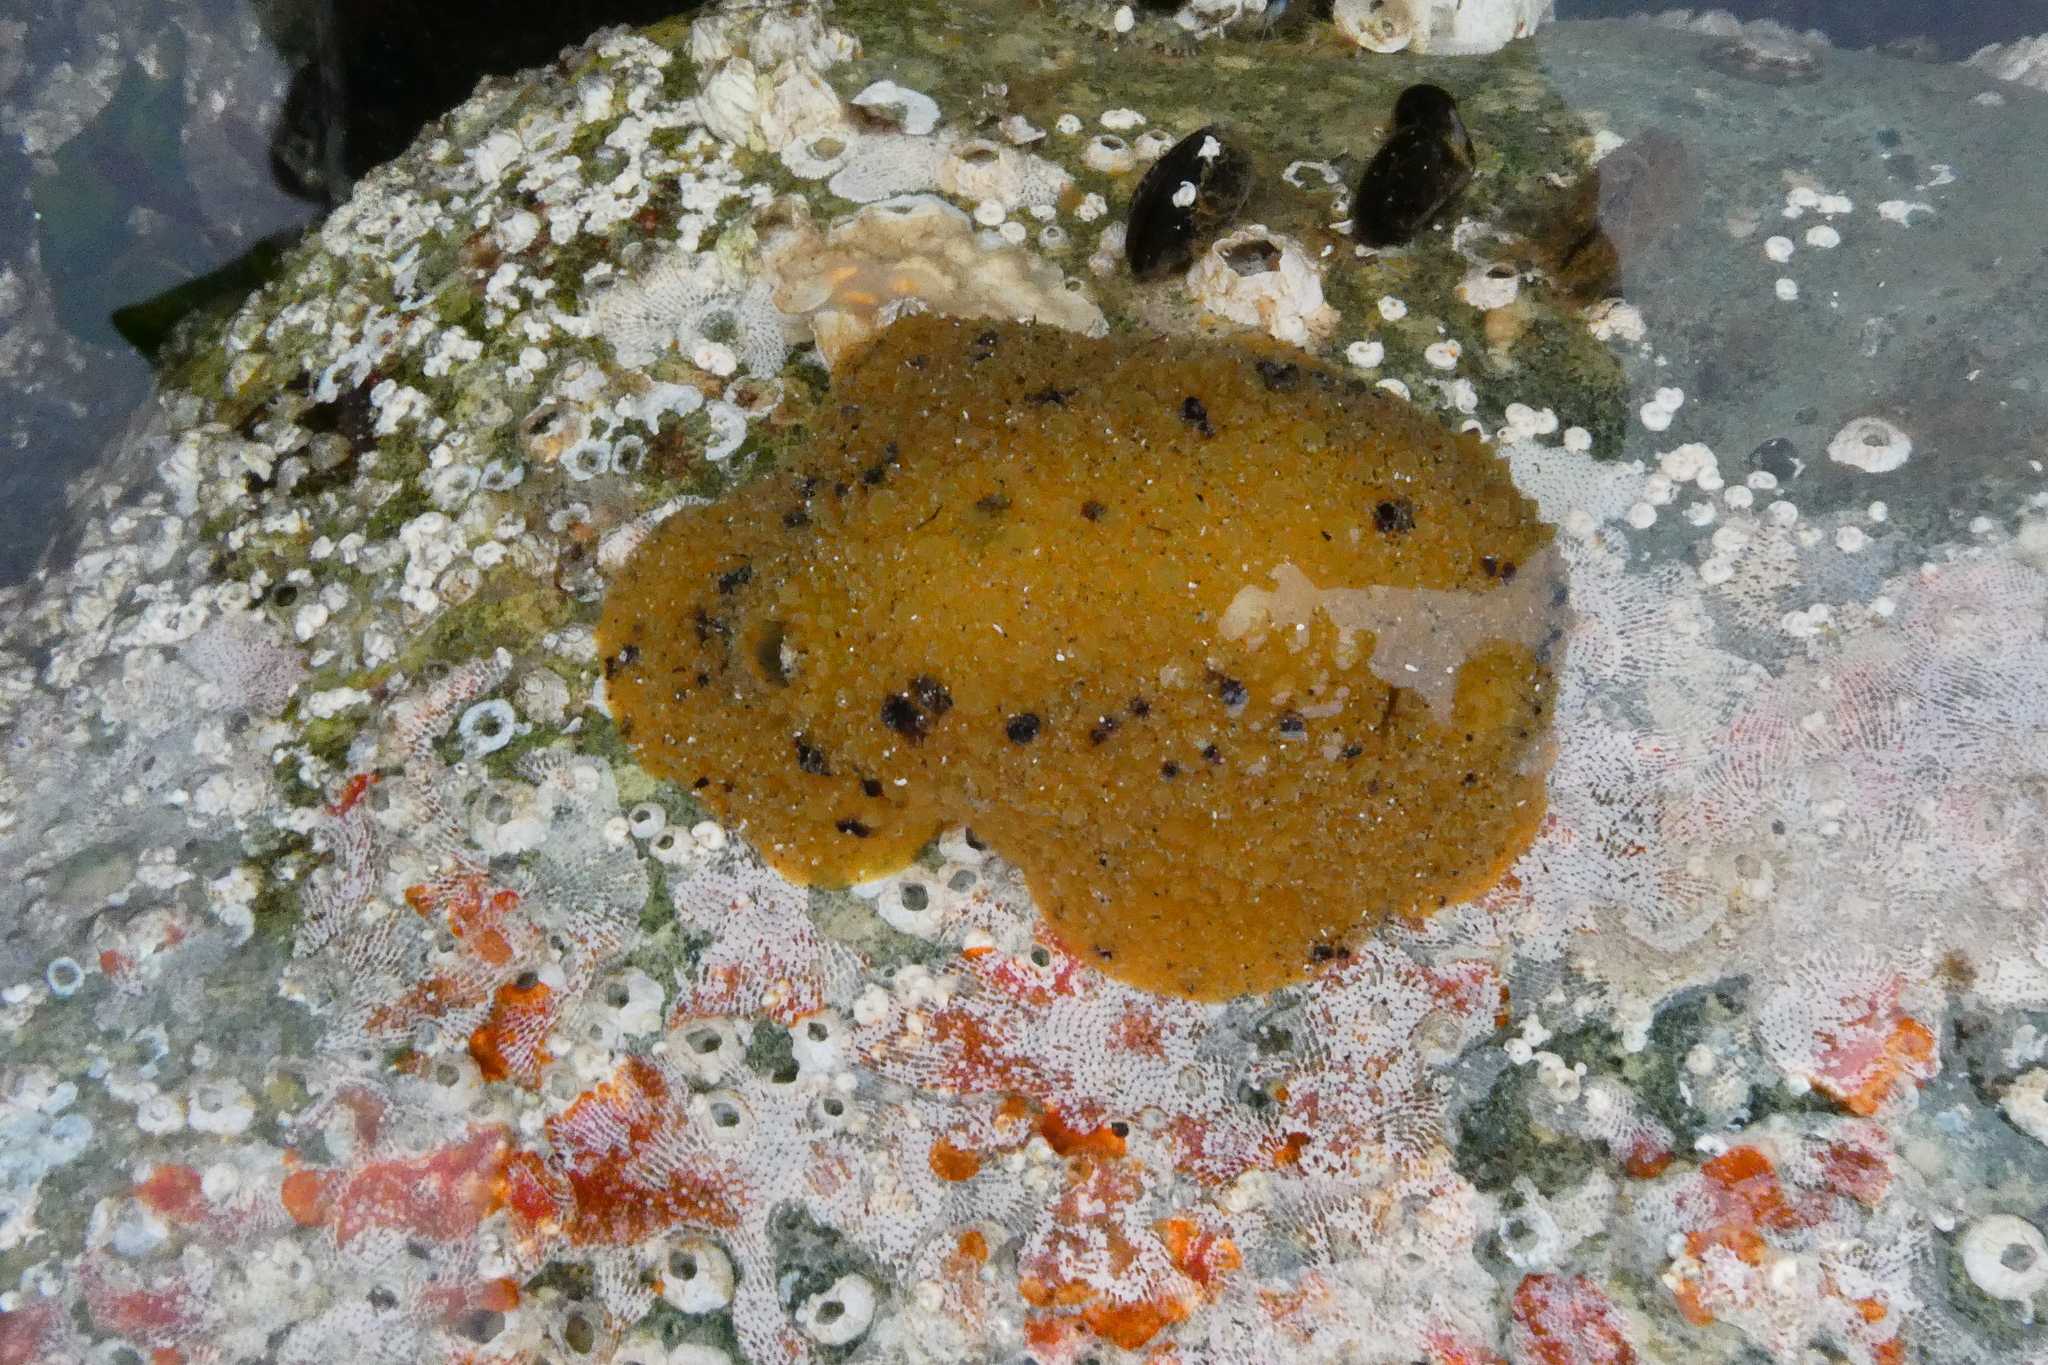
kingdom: Animalia
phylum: Mollusca
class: Gastropoda
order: Nudibranchia
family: Dorididae
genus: Doris
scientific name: Doris montereyensis
